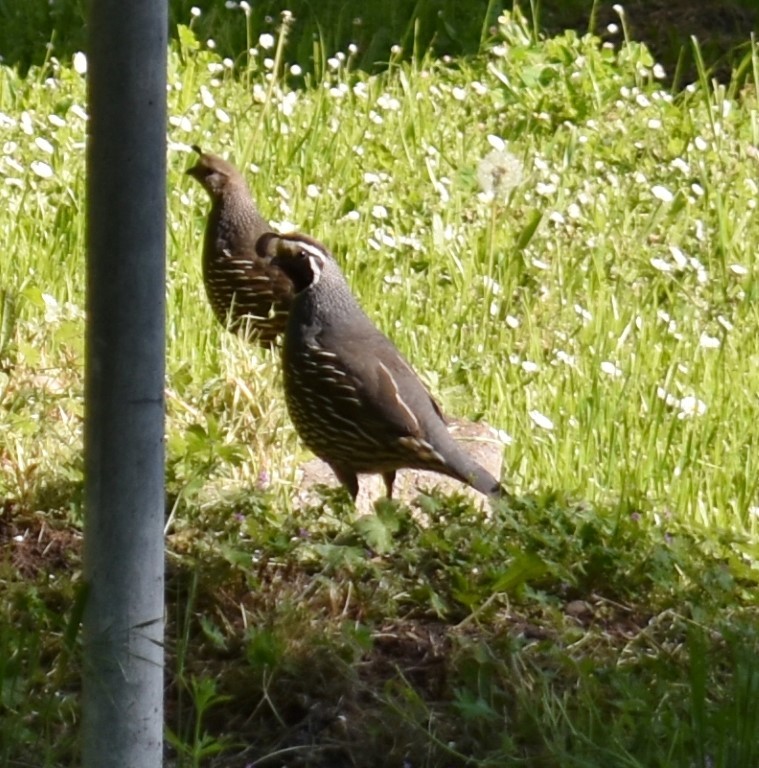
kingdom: Animalia
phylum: Chordata
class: Aves
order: Galliformes
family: Odontophoridae
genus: Callipepla
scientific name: Callipepla californica
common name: California quail
